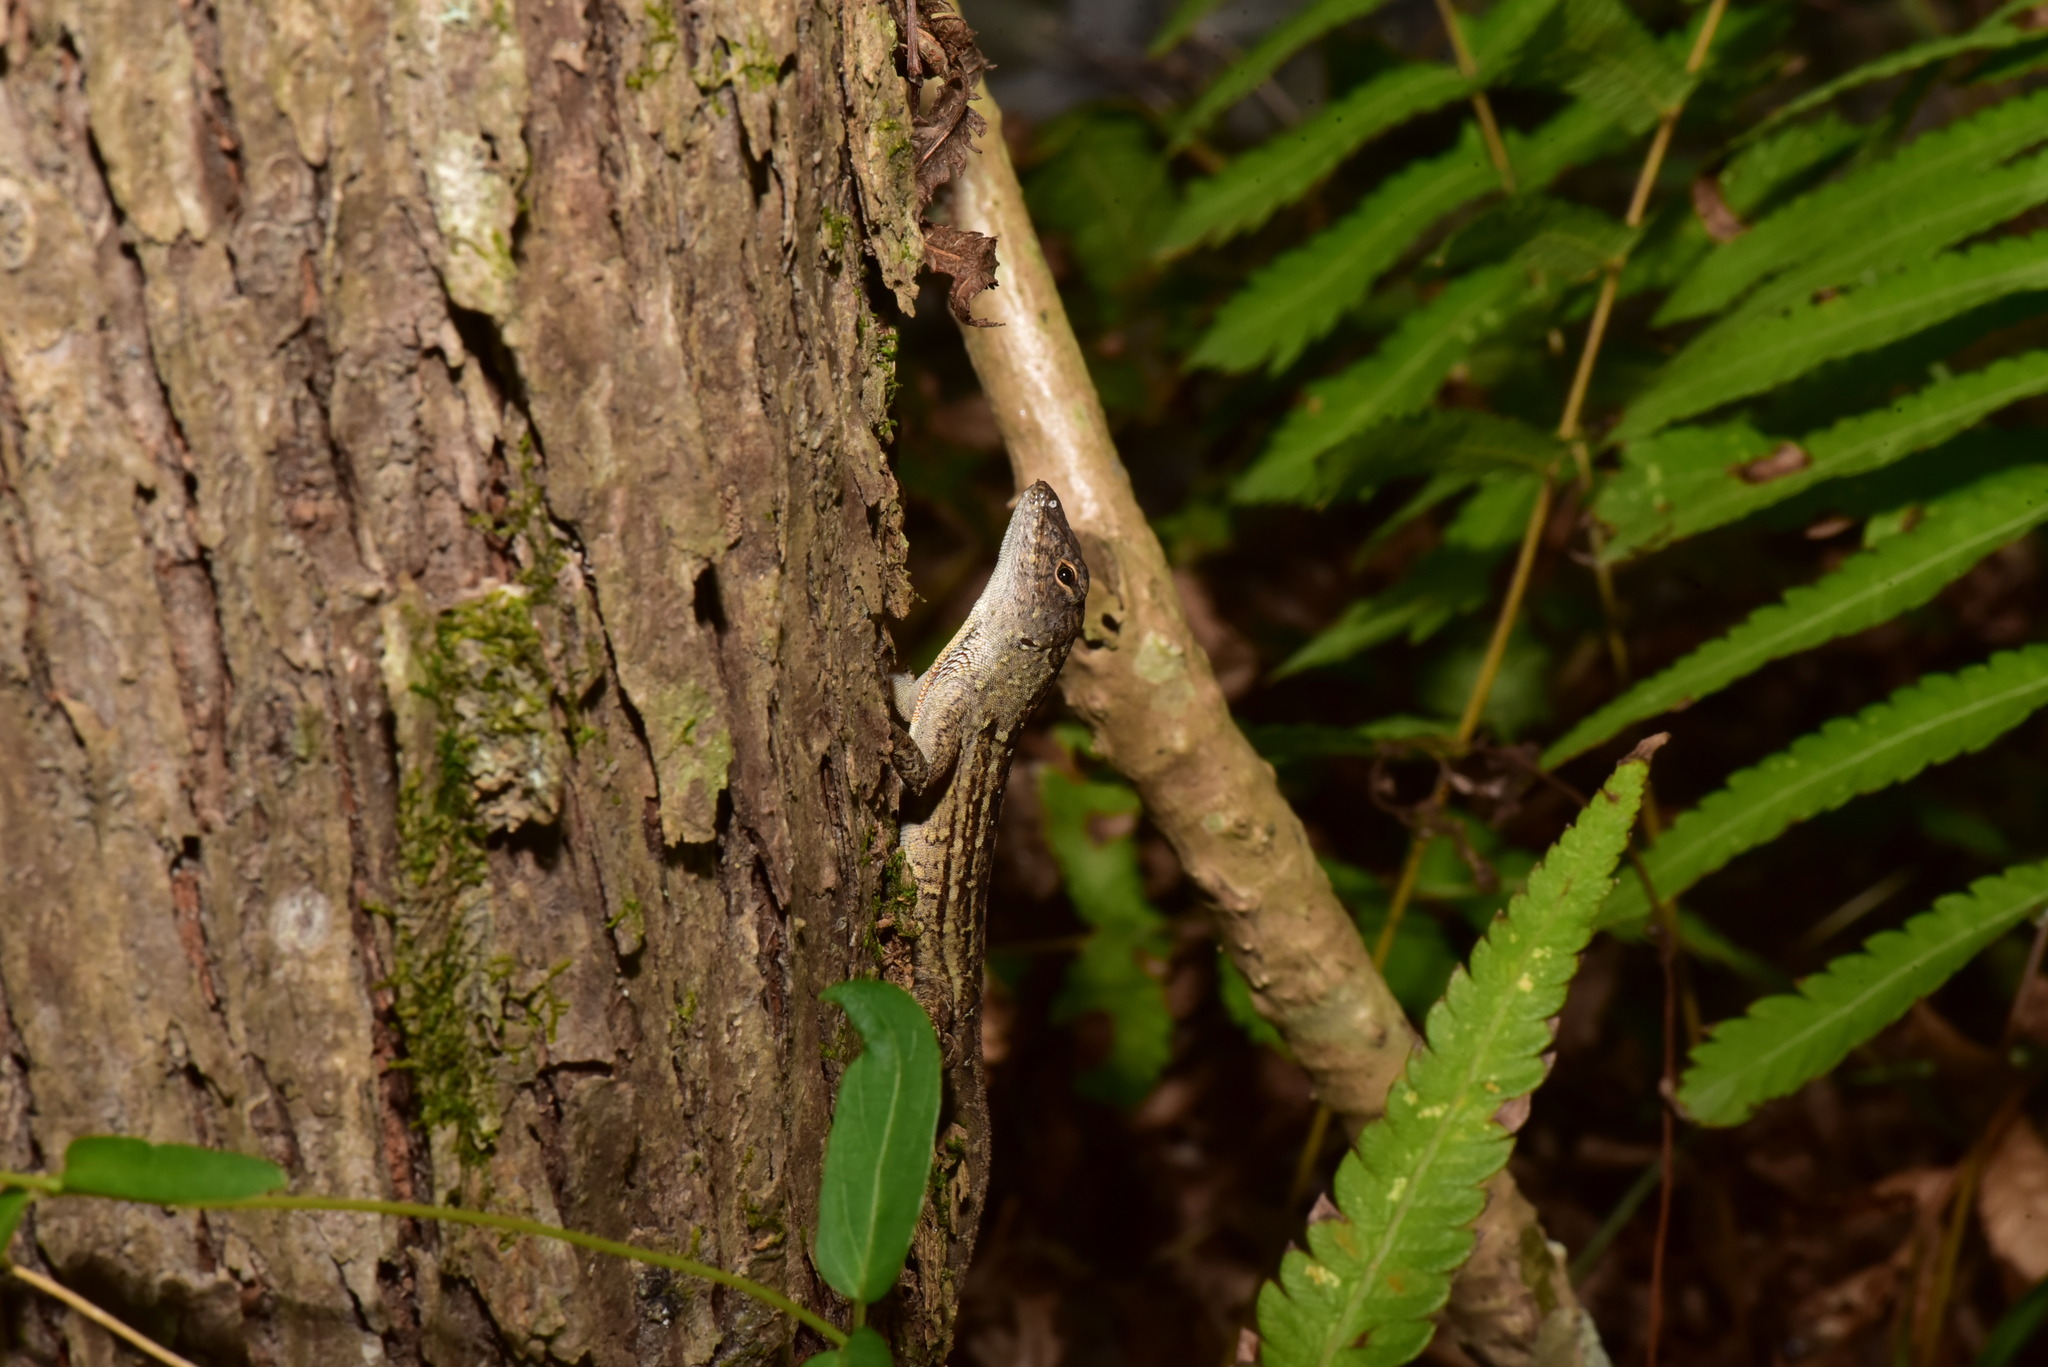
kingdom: Animalia
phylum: Chordata
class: Squamata
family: Dactyloidae
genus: Anolis
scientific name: Anolis sagrei
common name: Brown anole
